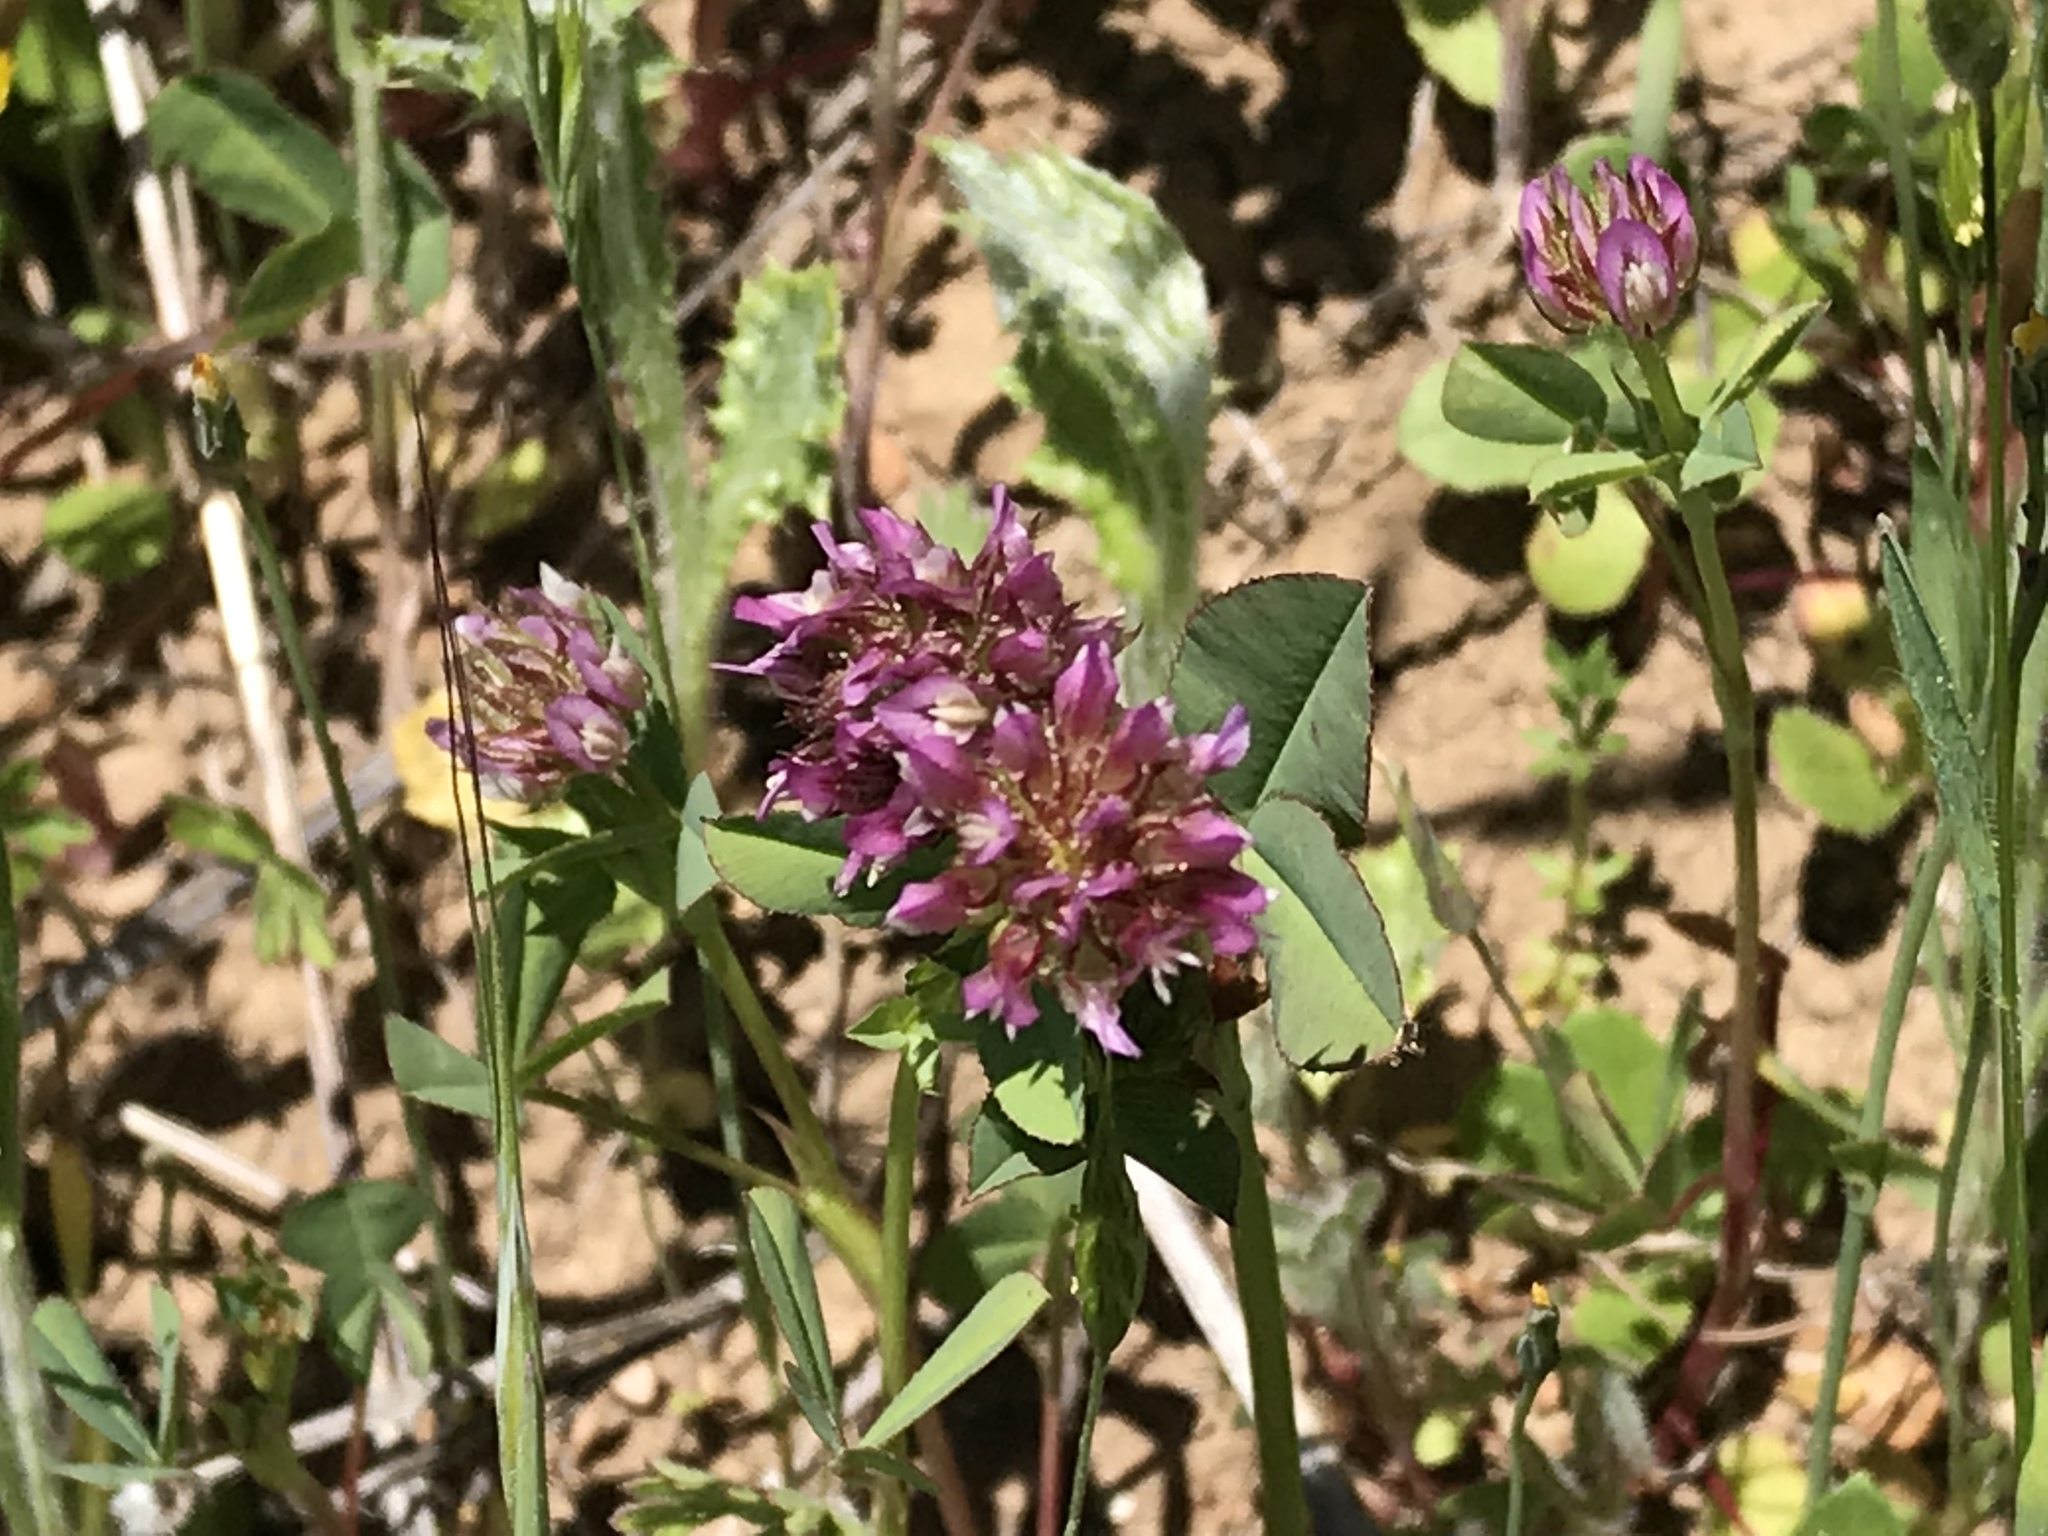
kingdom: Plantae
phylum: Tracheophyta
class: Magnoliopsida
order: Fabales
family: Fabaceae
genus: Trifolium
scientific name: Trifolium ciliolatum
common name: Foothill clover
